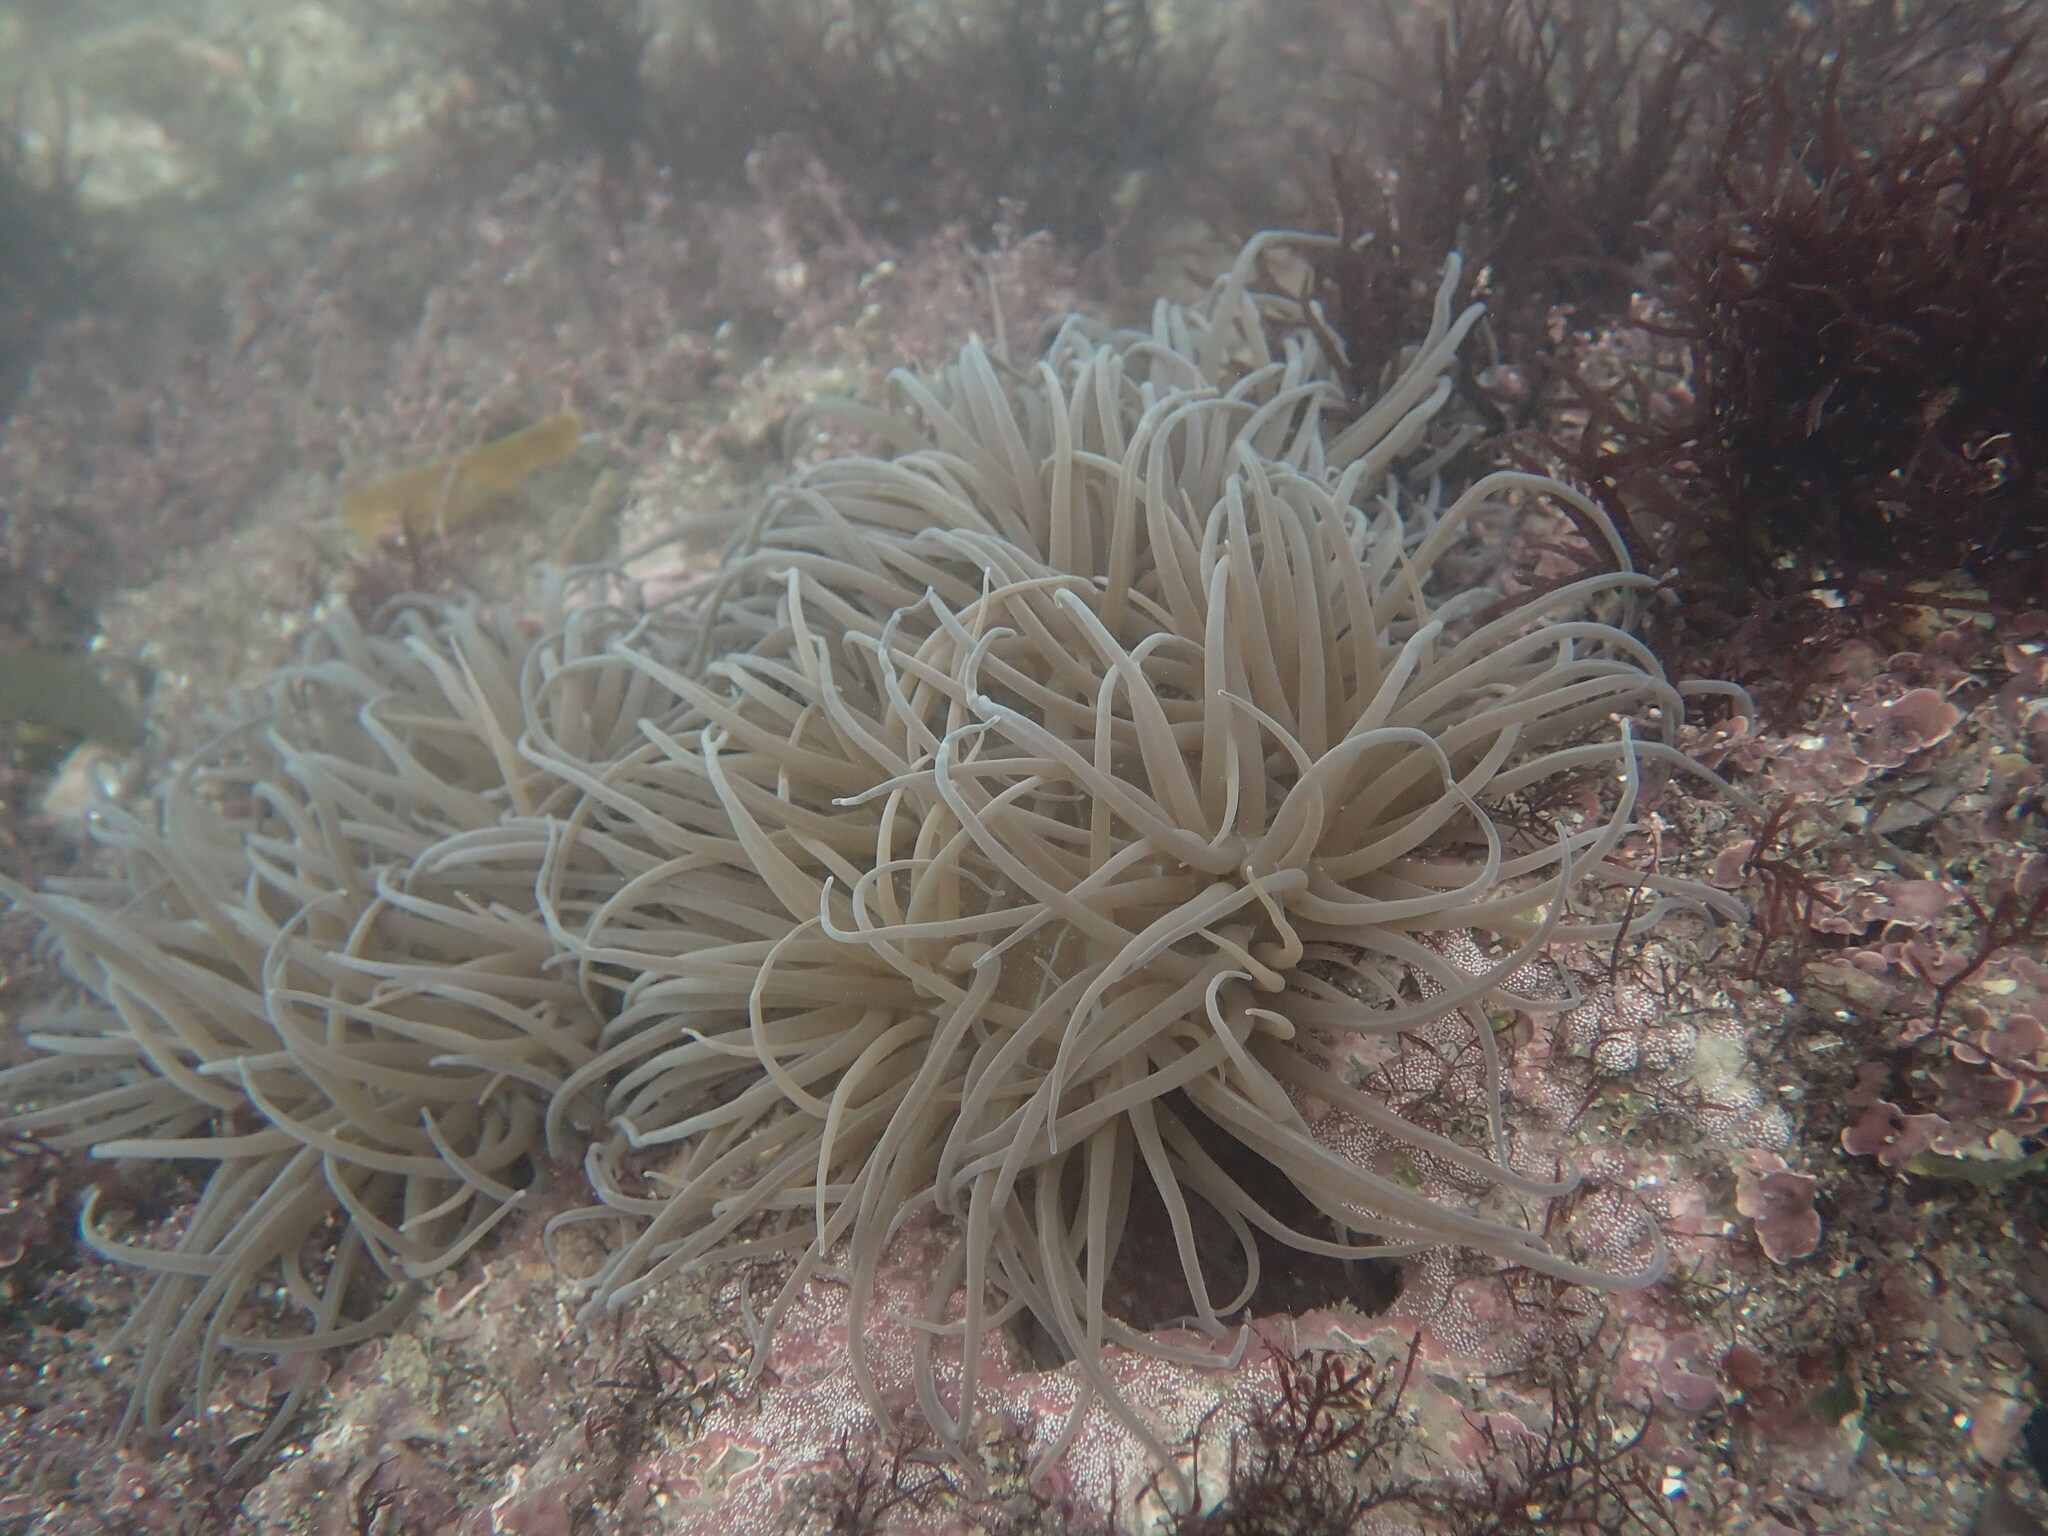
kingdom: Animalia
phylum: Cnidaria
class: Anthozoa
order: Actiniaria
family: Actiniidae
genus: Anemonia
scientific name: Anemonia viridis
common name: Snakelocks anemone
